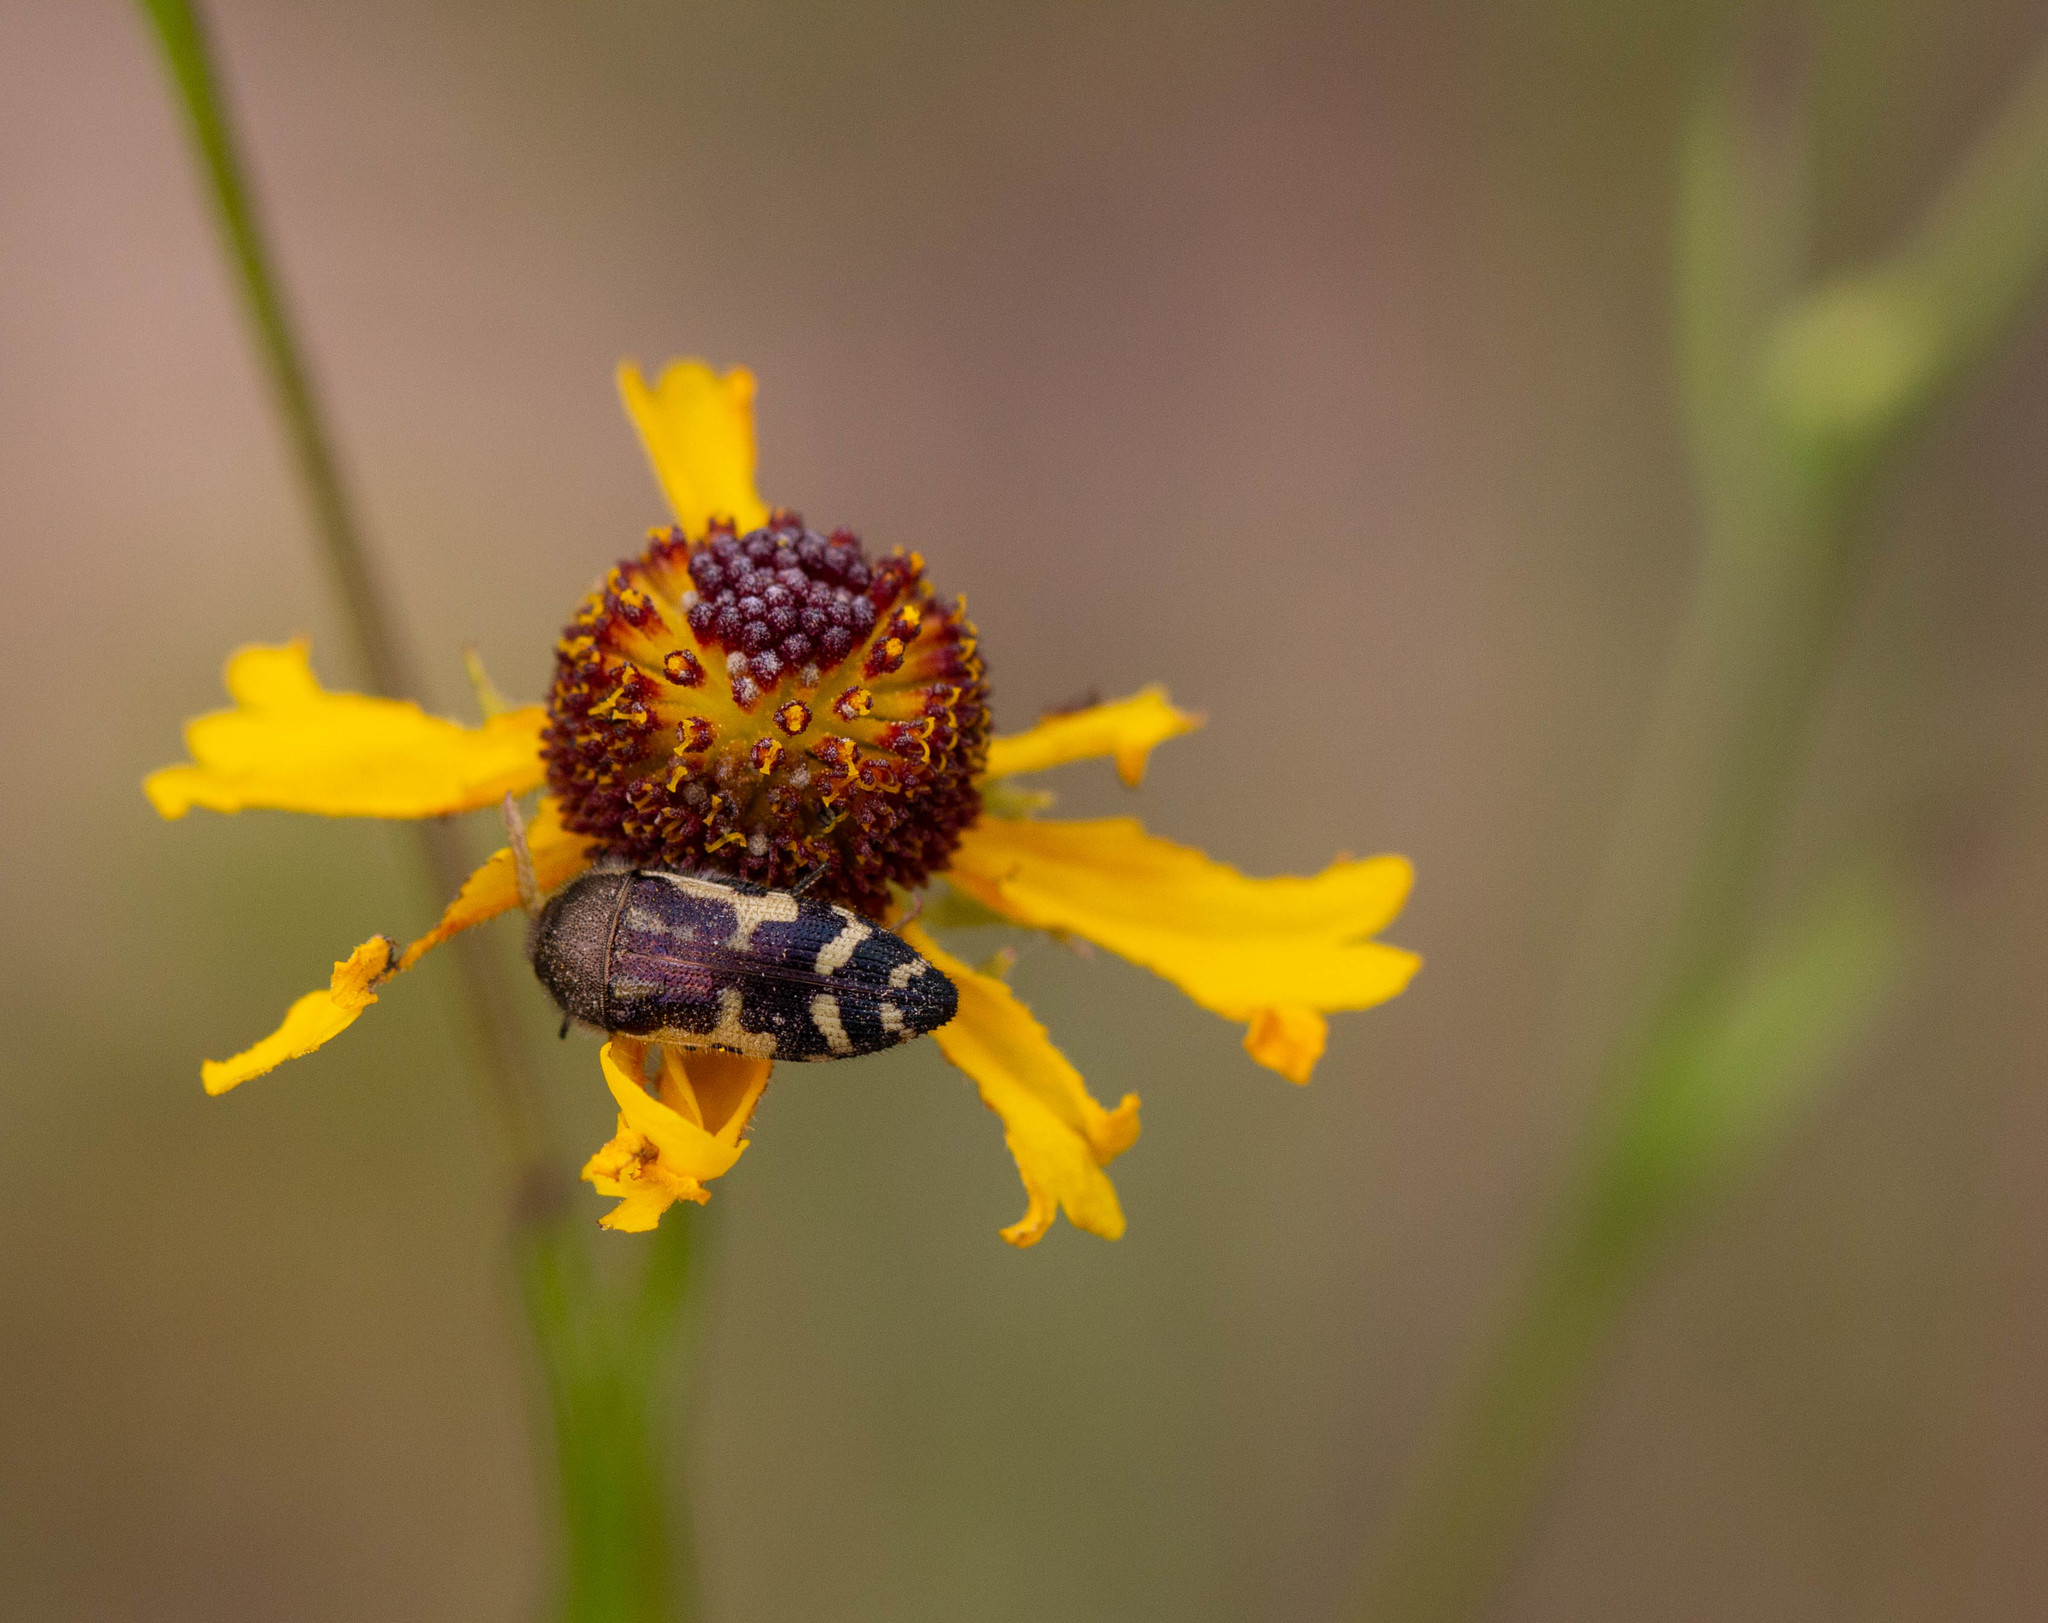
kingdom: Animalia
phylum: Arthropoda
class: Insecta
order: Coleoptera
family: Buprestidae
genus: Acmaeodera
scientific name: Acmaeodera pulchella
